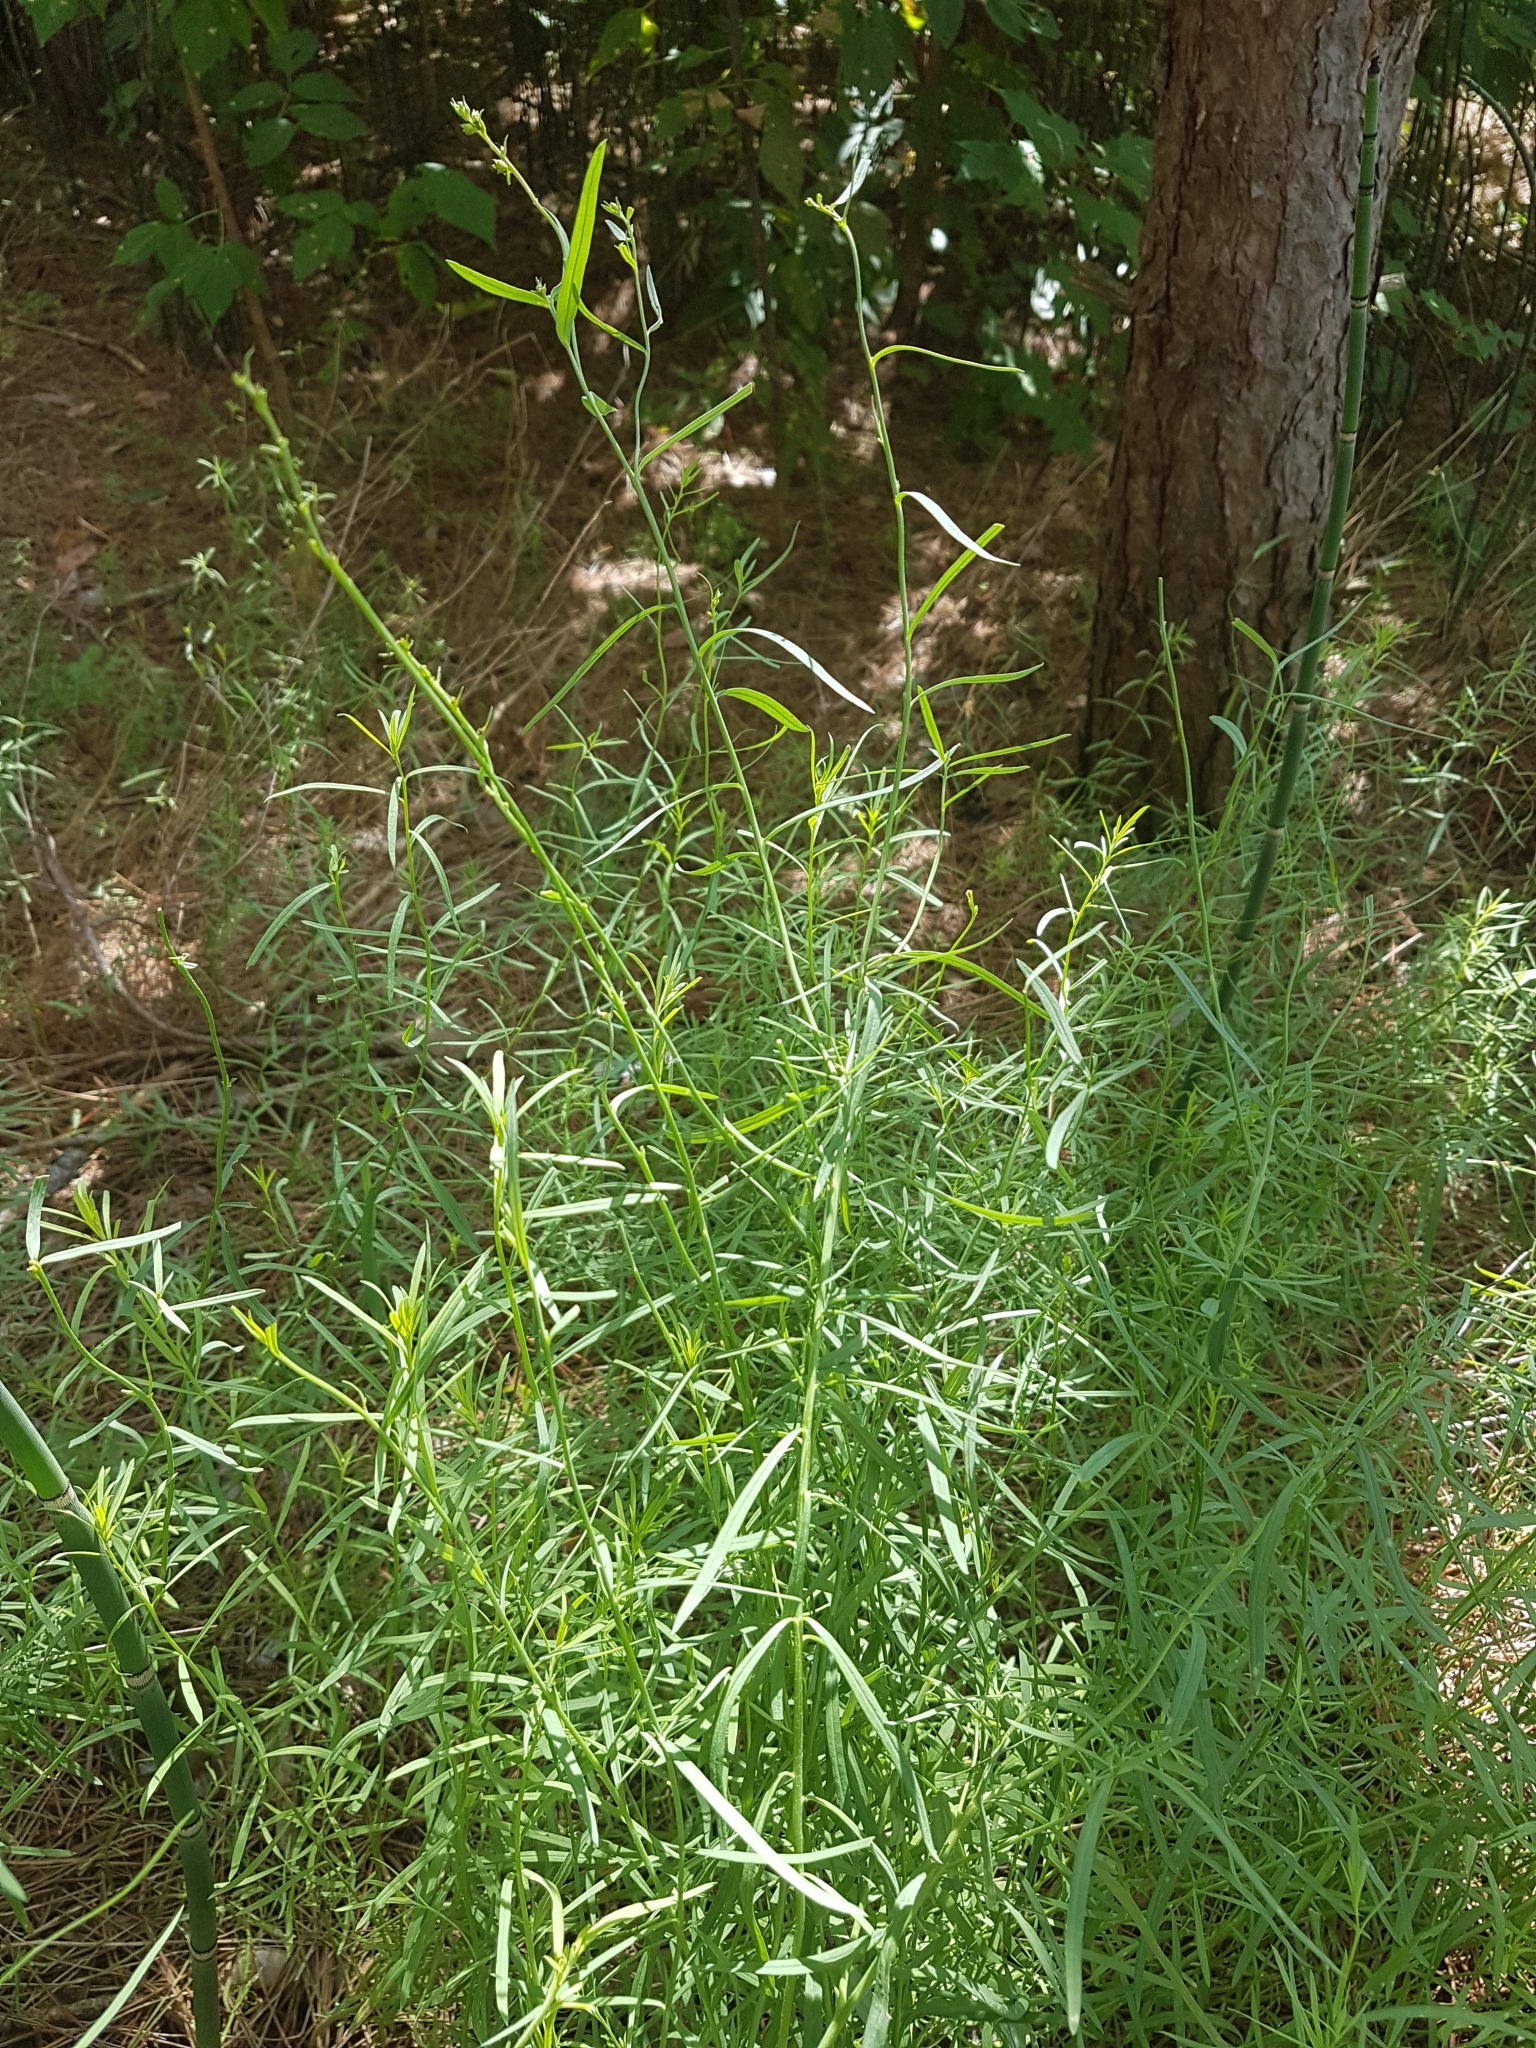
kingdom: Plantae
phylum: Tracheophyta
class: Magnoliopsida
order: Lamiales
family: Plantaginaceae
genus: Linaria
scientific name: Linaria vulgaris
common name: Butter and eggs
